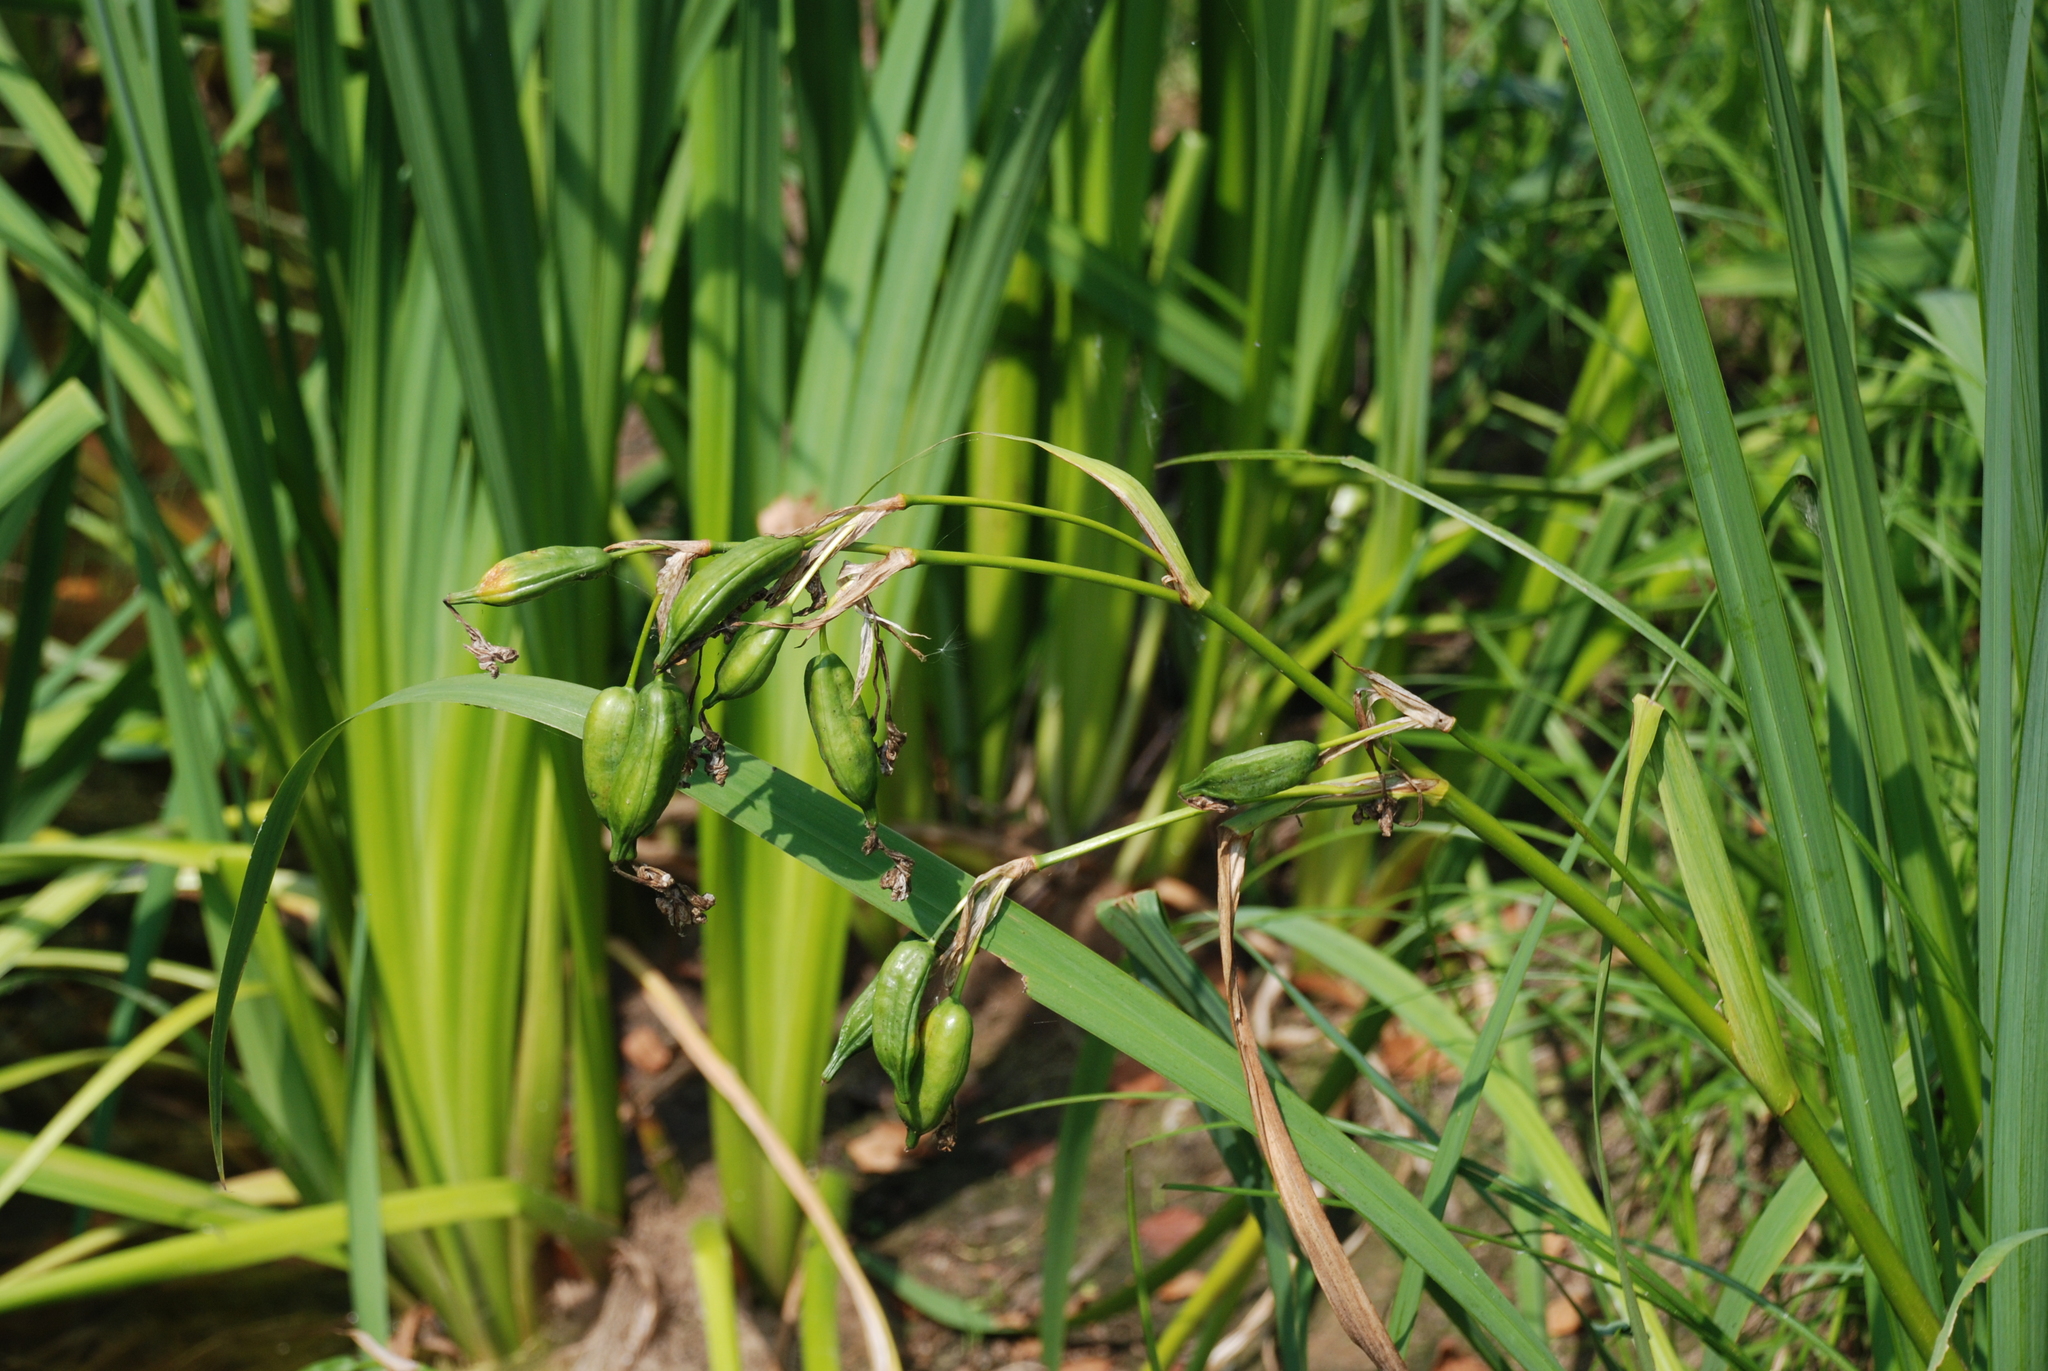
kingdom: Plantae
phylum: Tracheophyta
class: Liliopsida
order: Asparagales
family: Iridaceae
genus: Iris
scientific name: Iris pseudacorus
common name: Yellow flag
